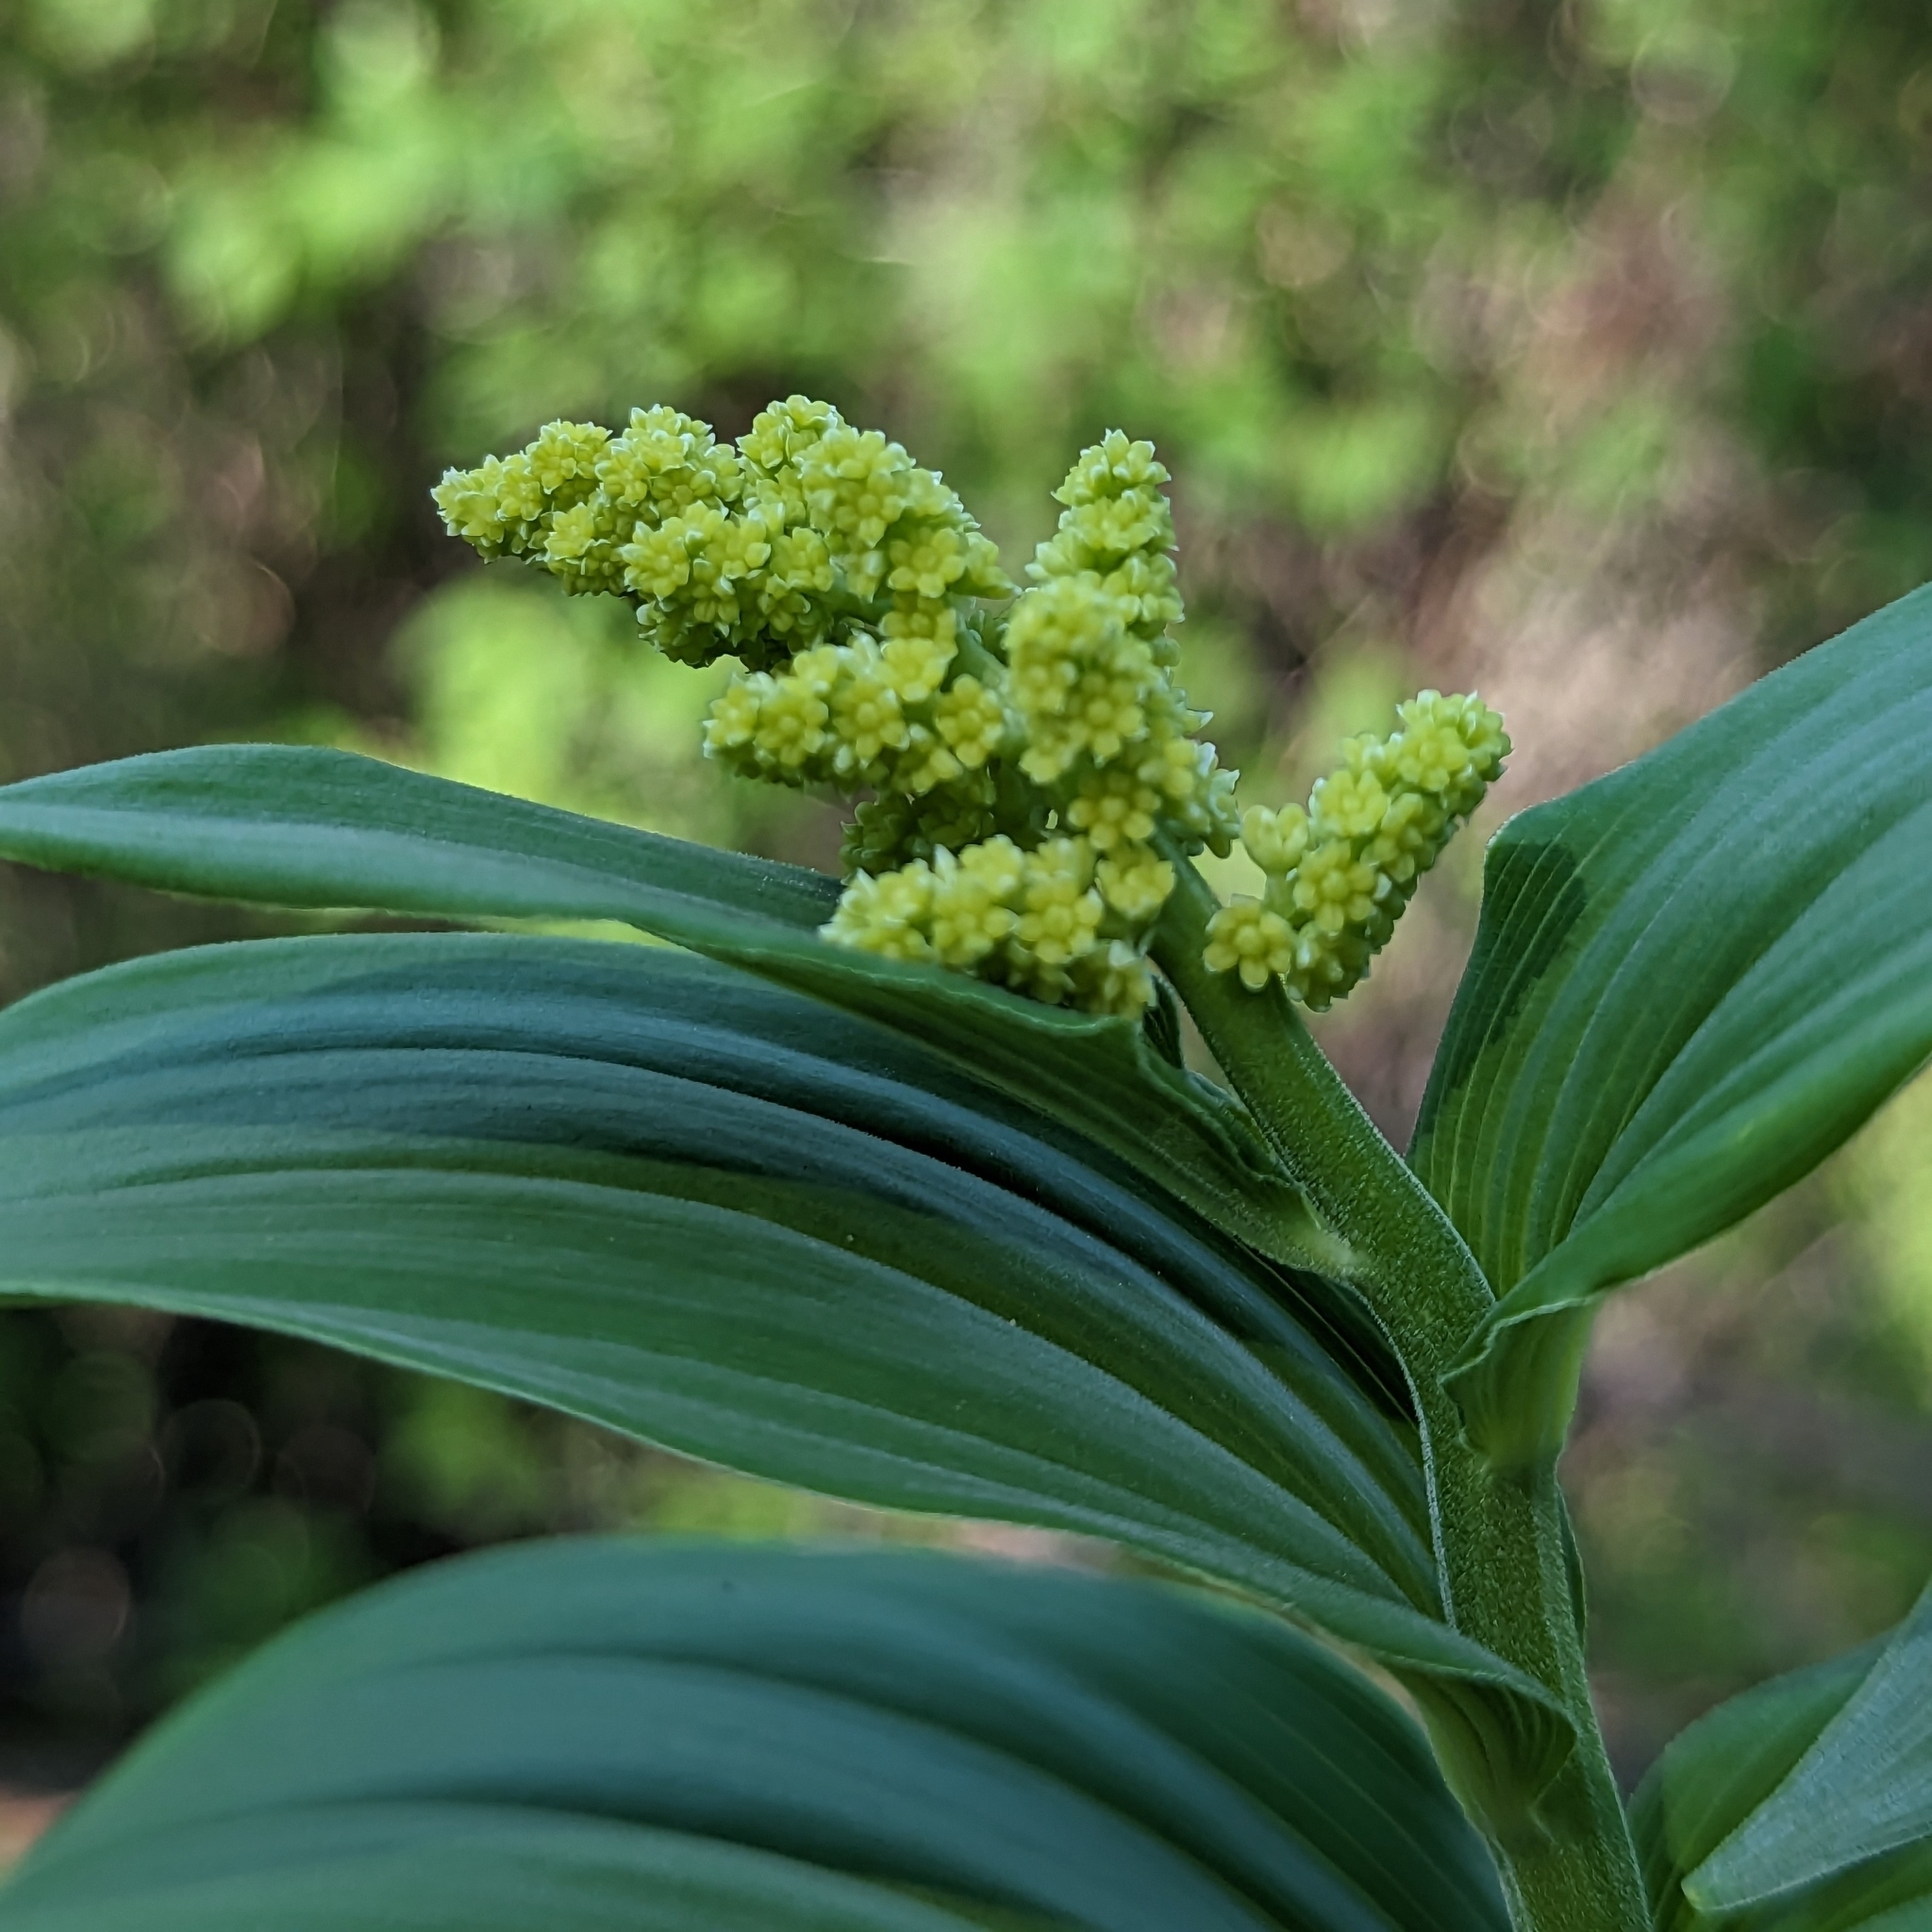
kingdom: Plantae
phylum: Tracheophyta
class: Liliopsida
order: Asparagales
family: Asparagaceae
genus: Maianthemum
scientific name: Maianthemum racemosum
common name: False spikenard
